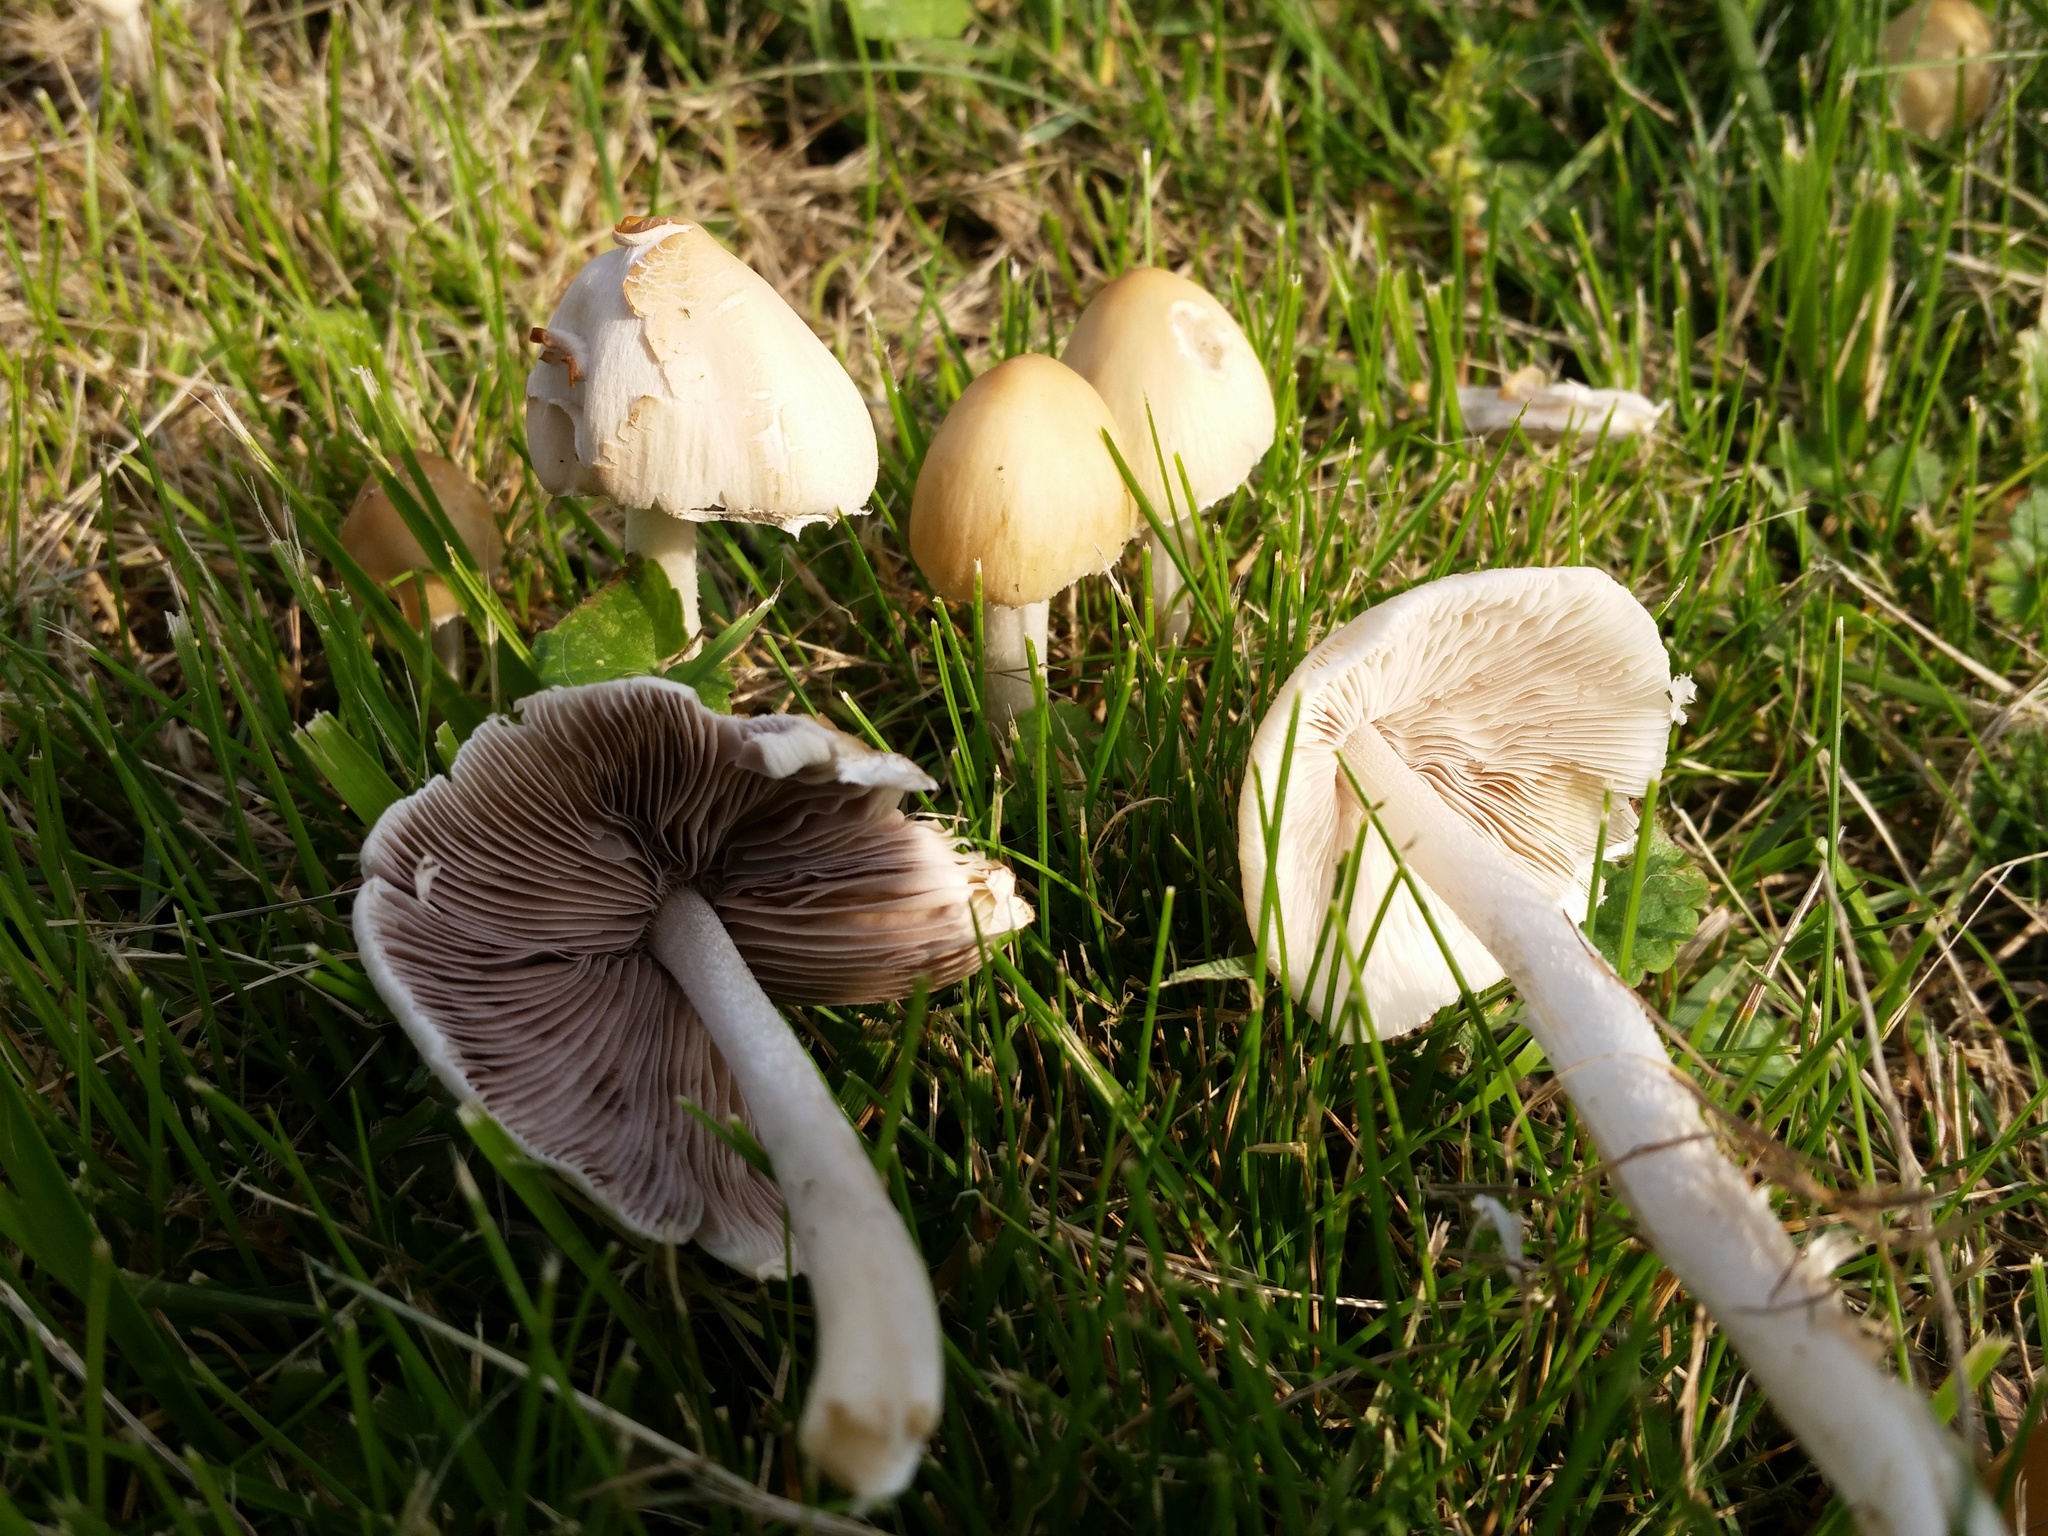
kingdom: Fungi
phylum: Basidiomycota
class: Agaricomycetes
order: Agaricales
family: Psathyrellaceae
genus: Candolleomyces
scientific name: Candolleomyces candolleanus
